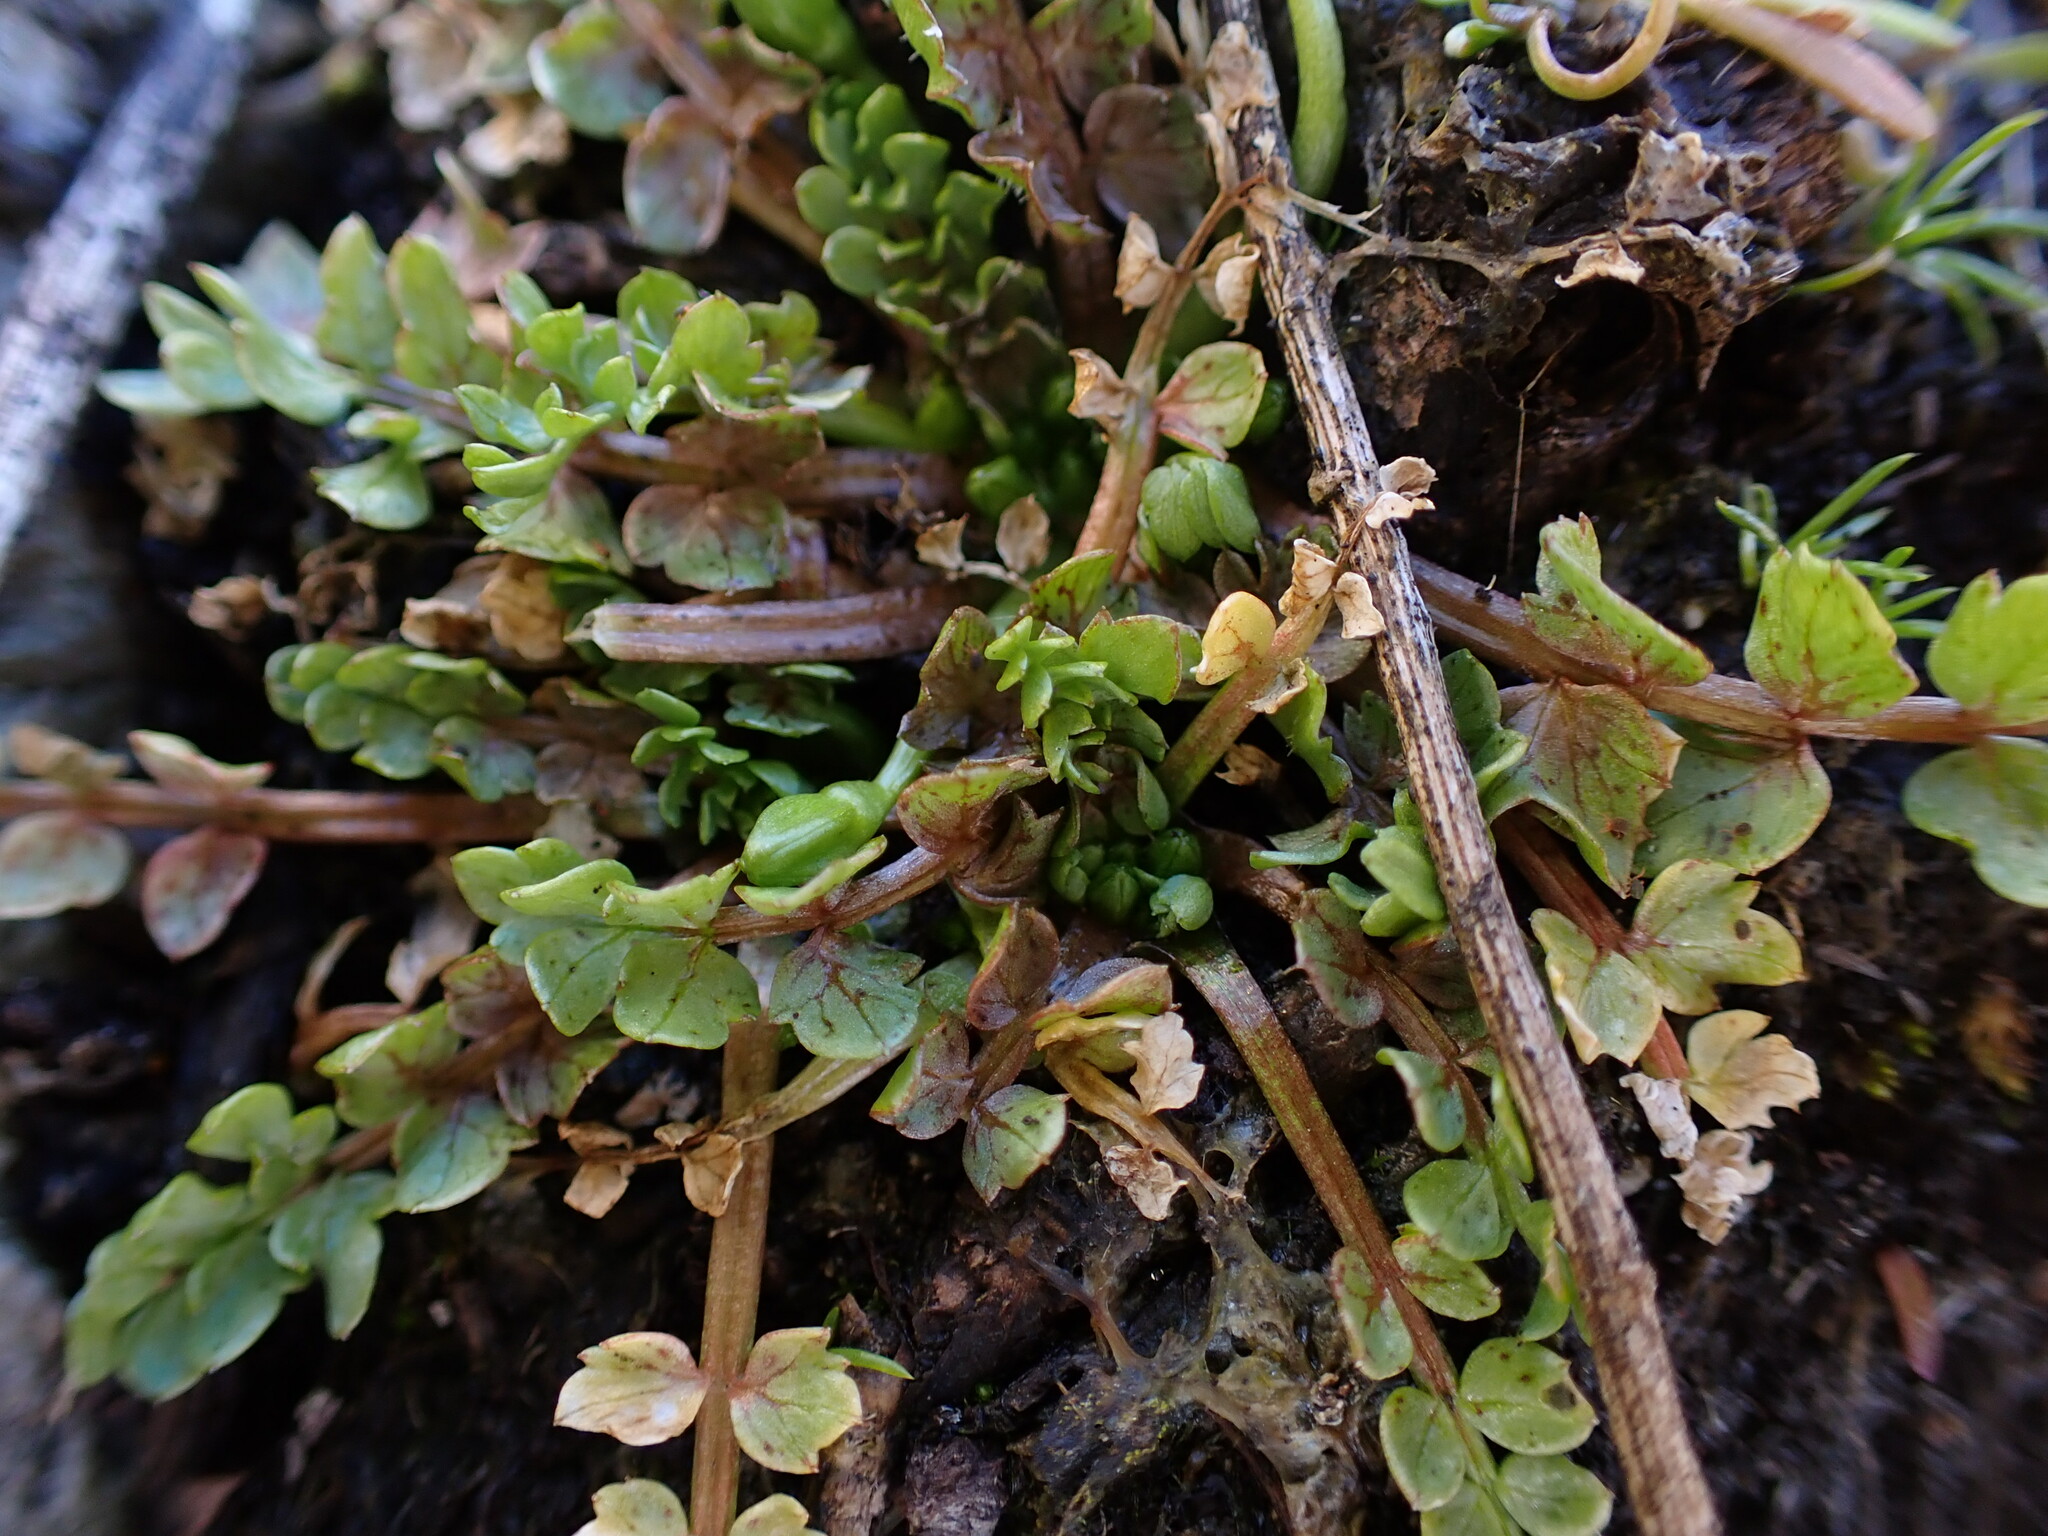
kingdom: Plantae
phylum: Tracheophyta
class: Magnoliopsida
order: Brassicales
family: Limnanthaceae
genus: Limnanthes
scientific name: Limnanthes macounii
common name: Macoun's meadowfoam
